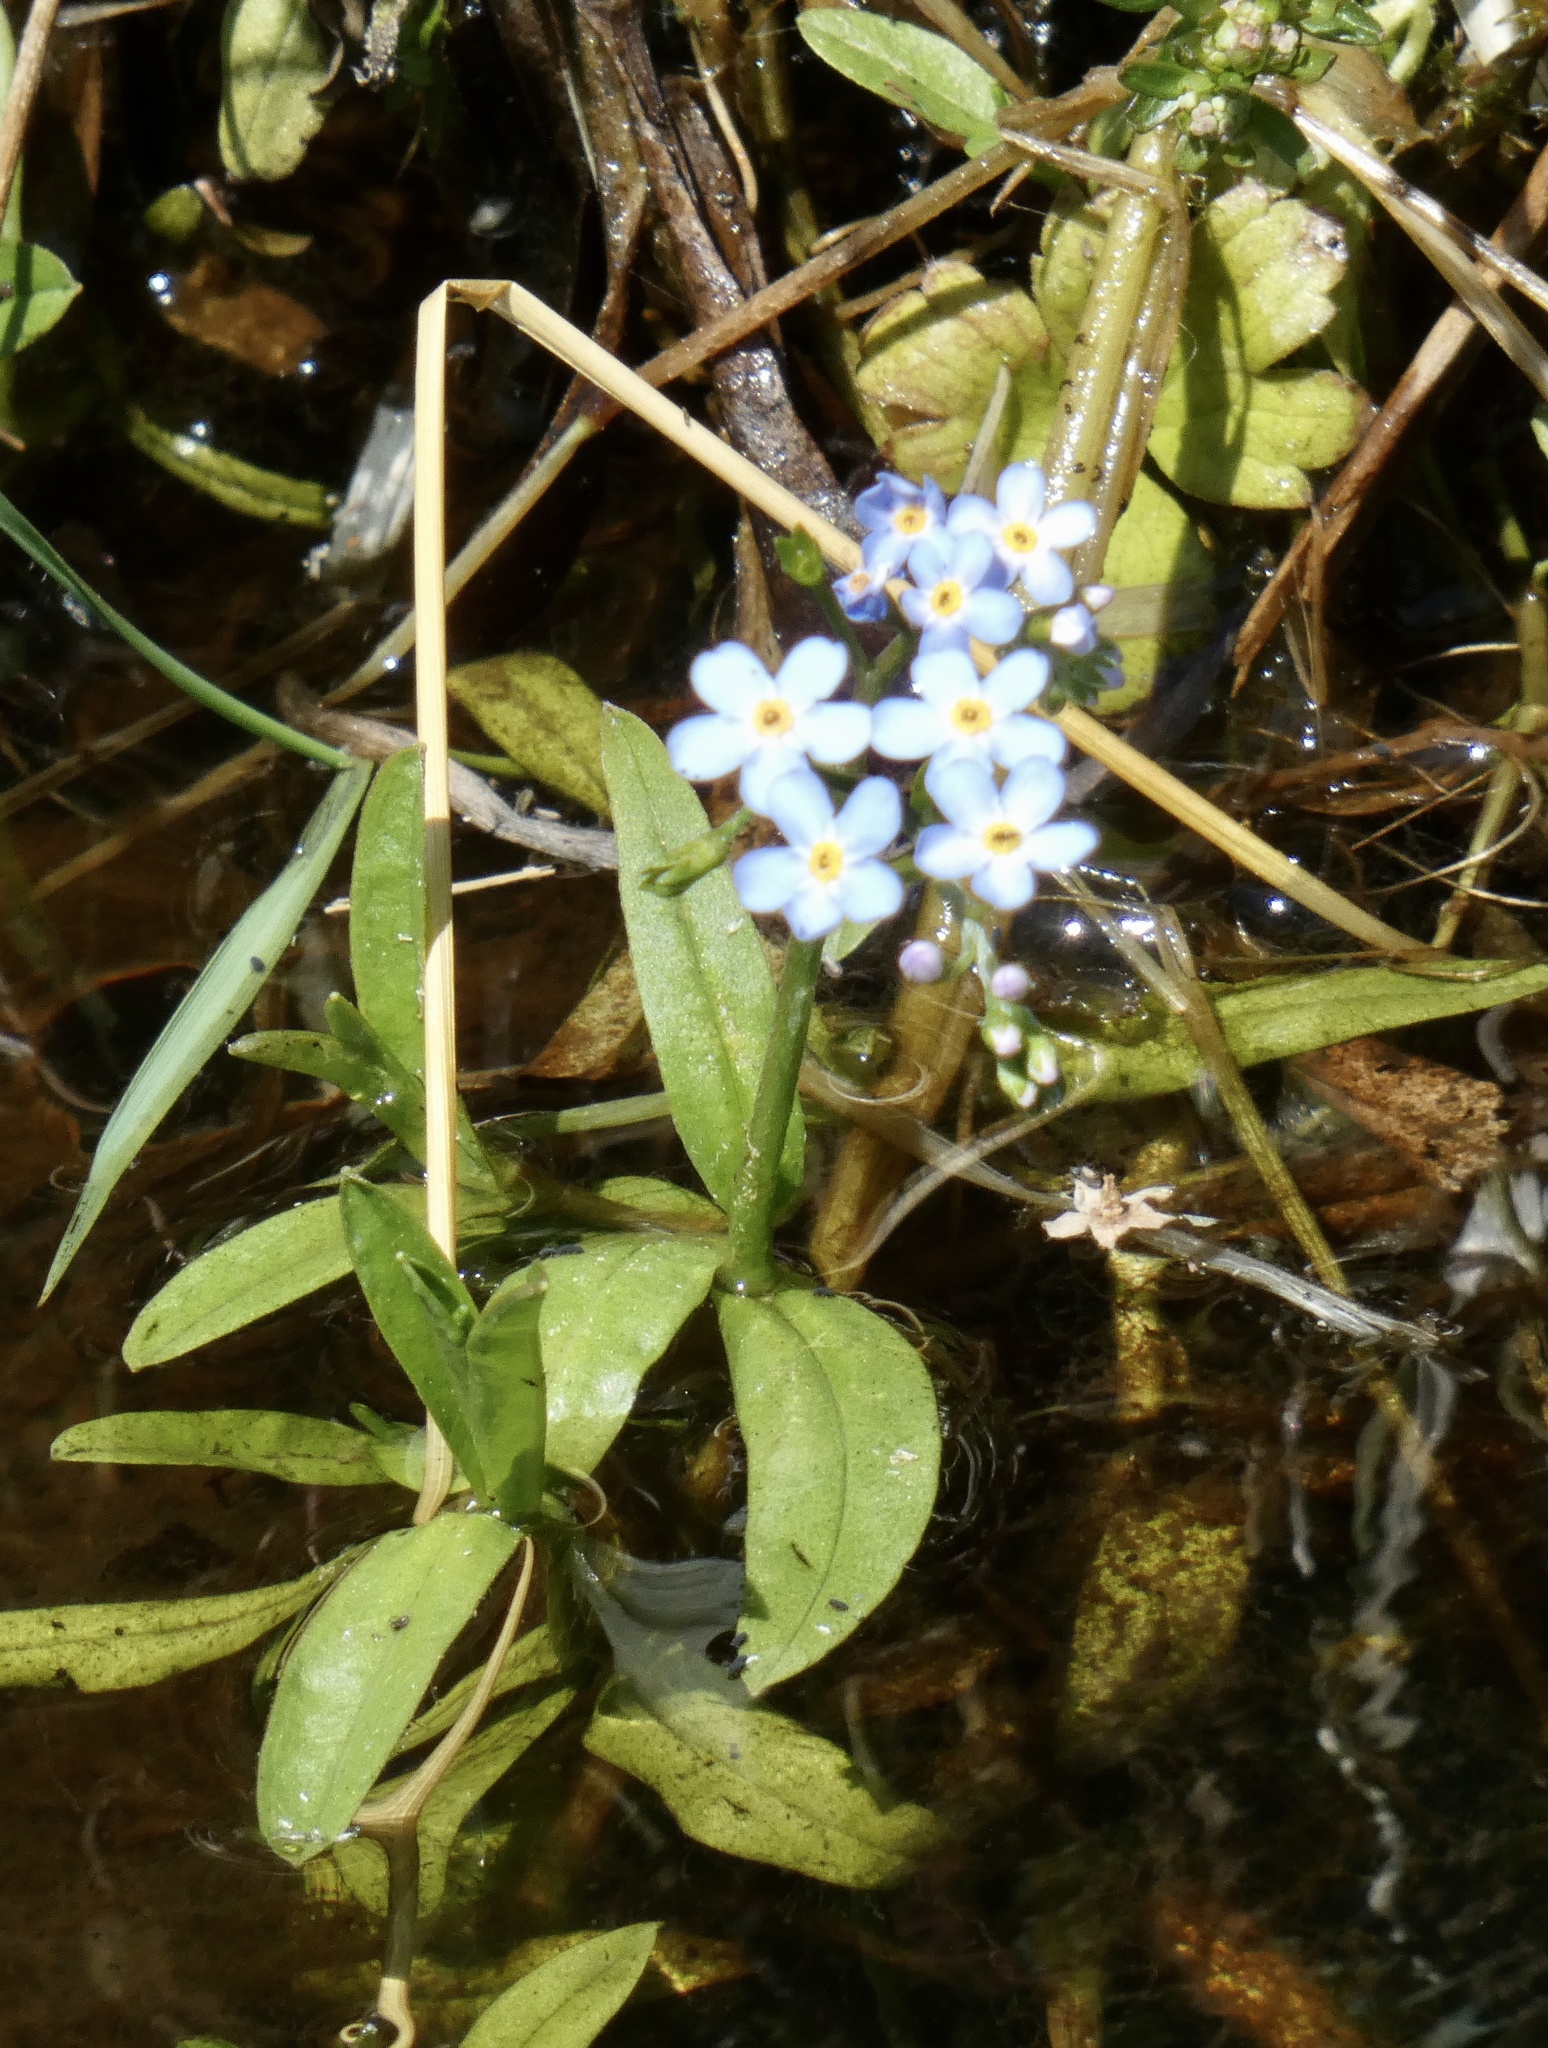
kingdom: Plantae
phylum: Tracheophyta
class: Magnoliopsida
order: Boraginales
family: Boraginaceae
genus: Myosotis
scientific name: Myosotis scorpioides
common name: Water forget-me-not
